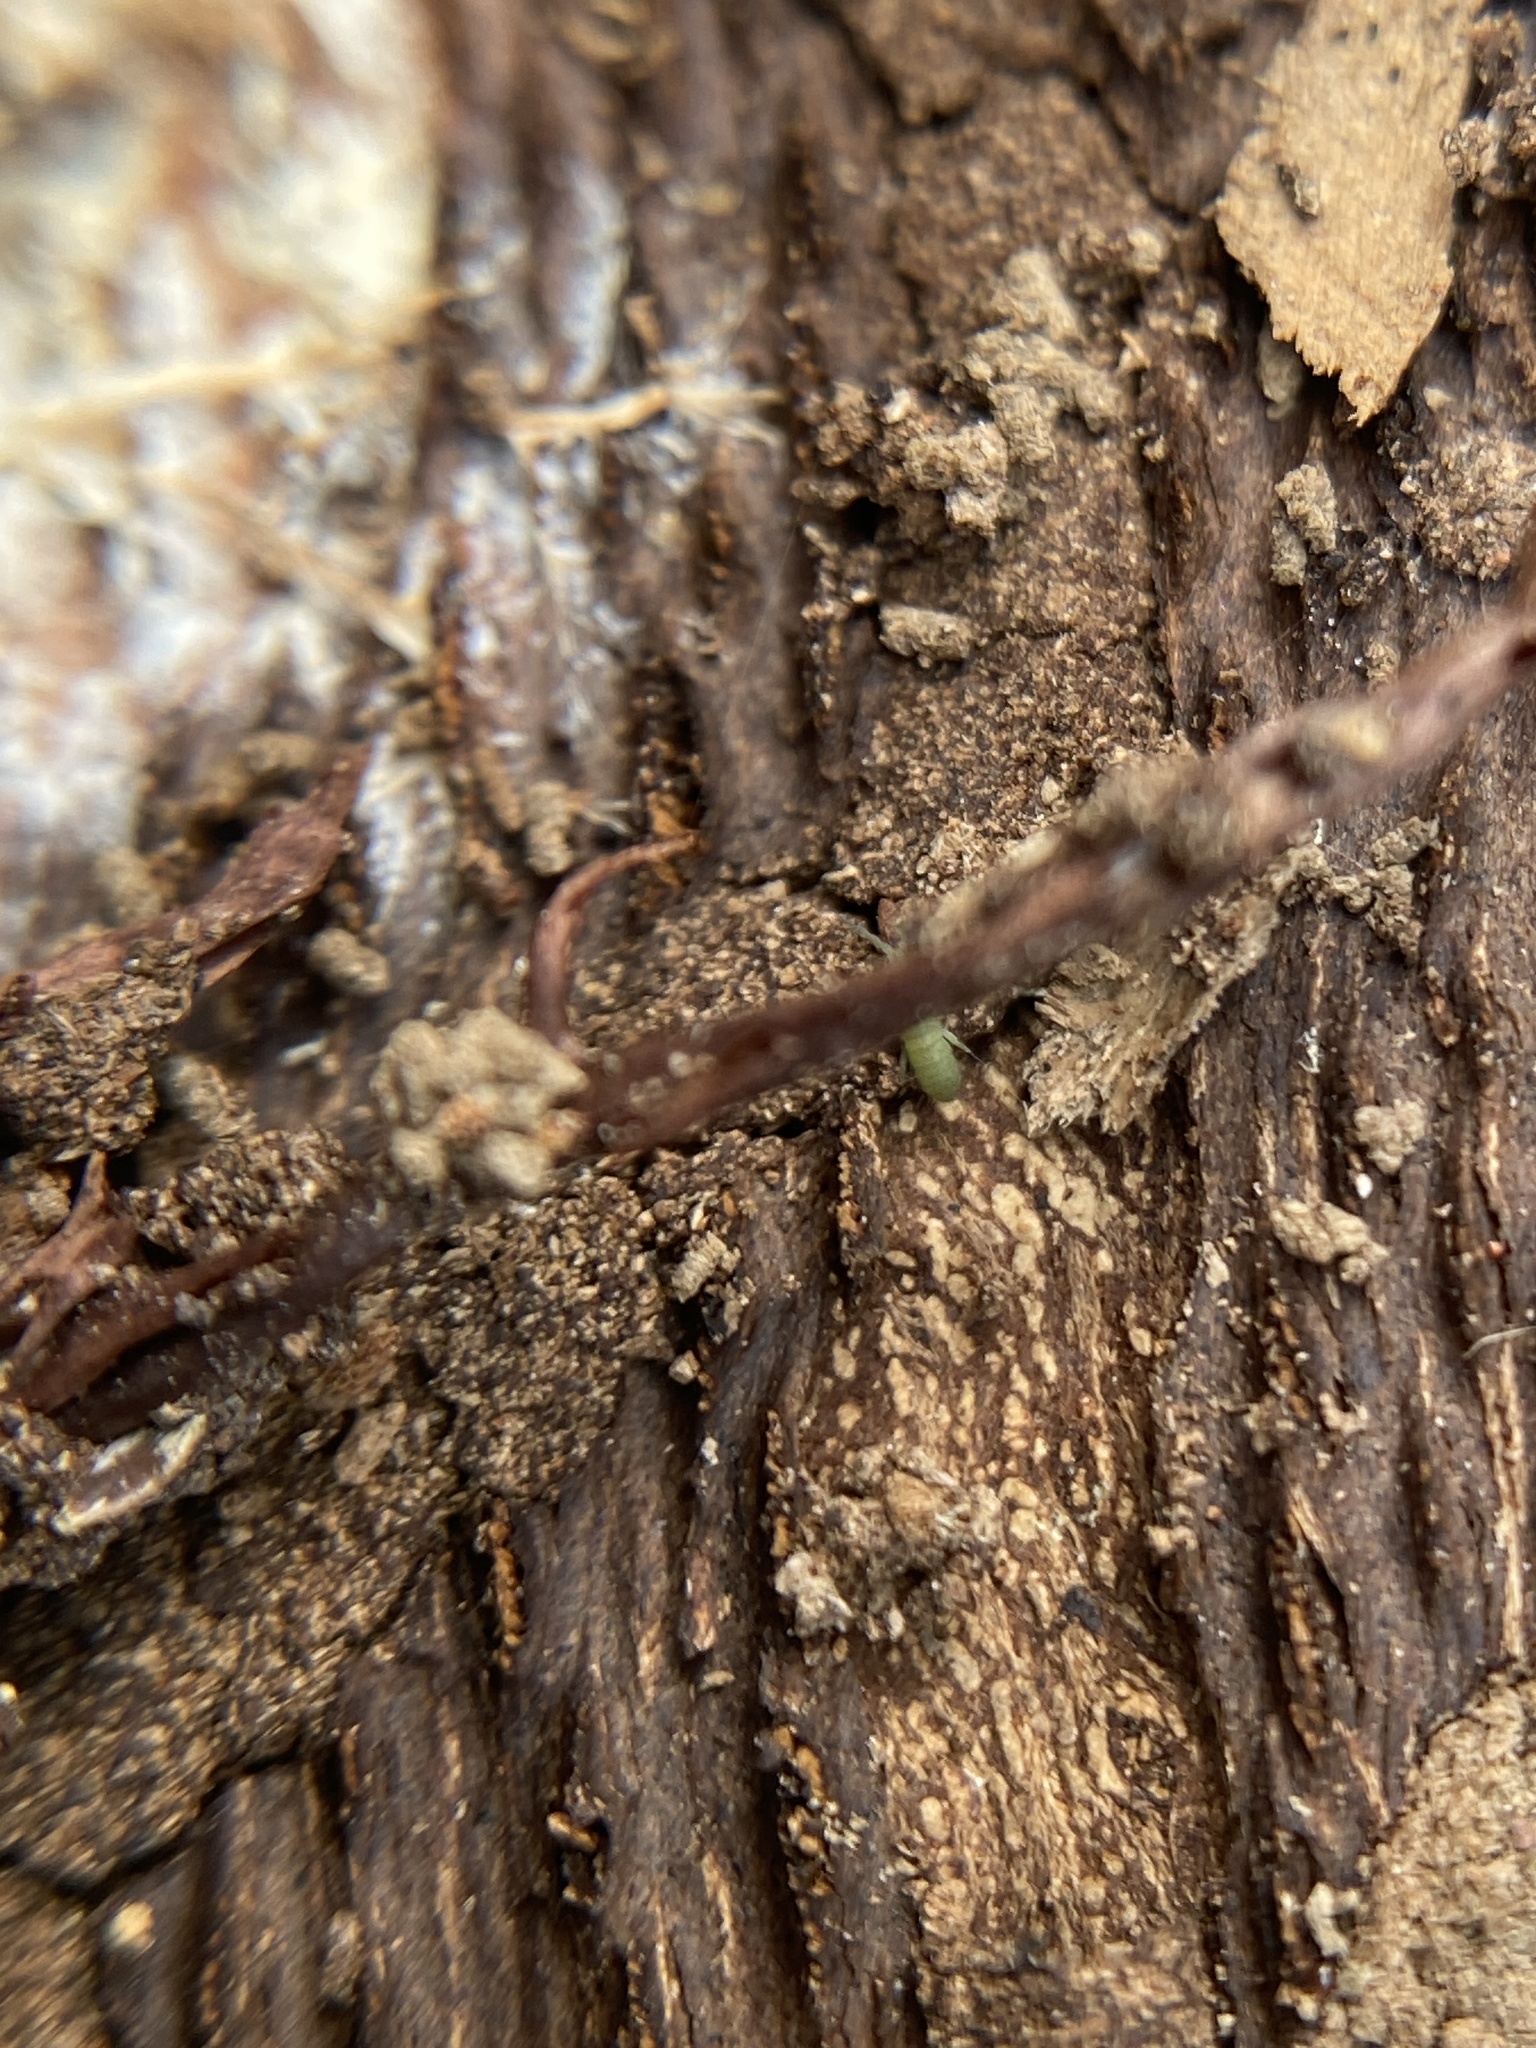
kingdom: Animalia
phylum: Arthropoda
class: Collembola
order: Entomobryomorpha
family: Isotomidae
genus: Isotoma
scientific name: Isotoma viridis
